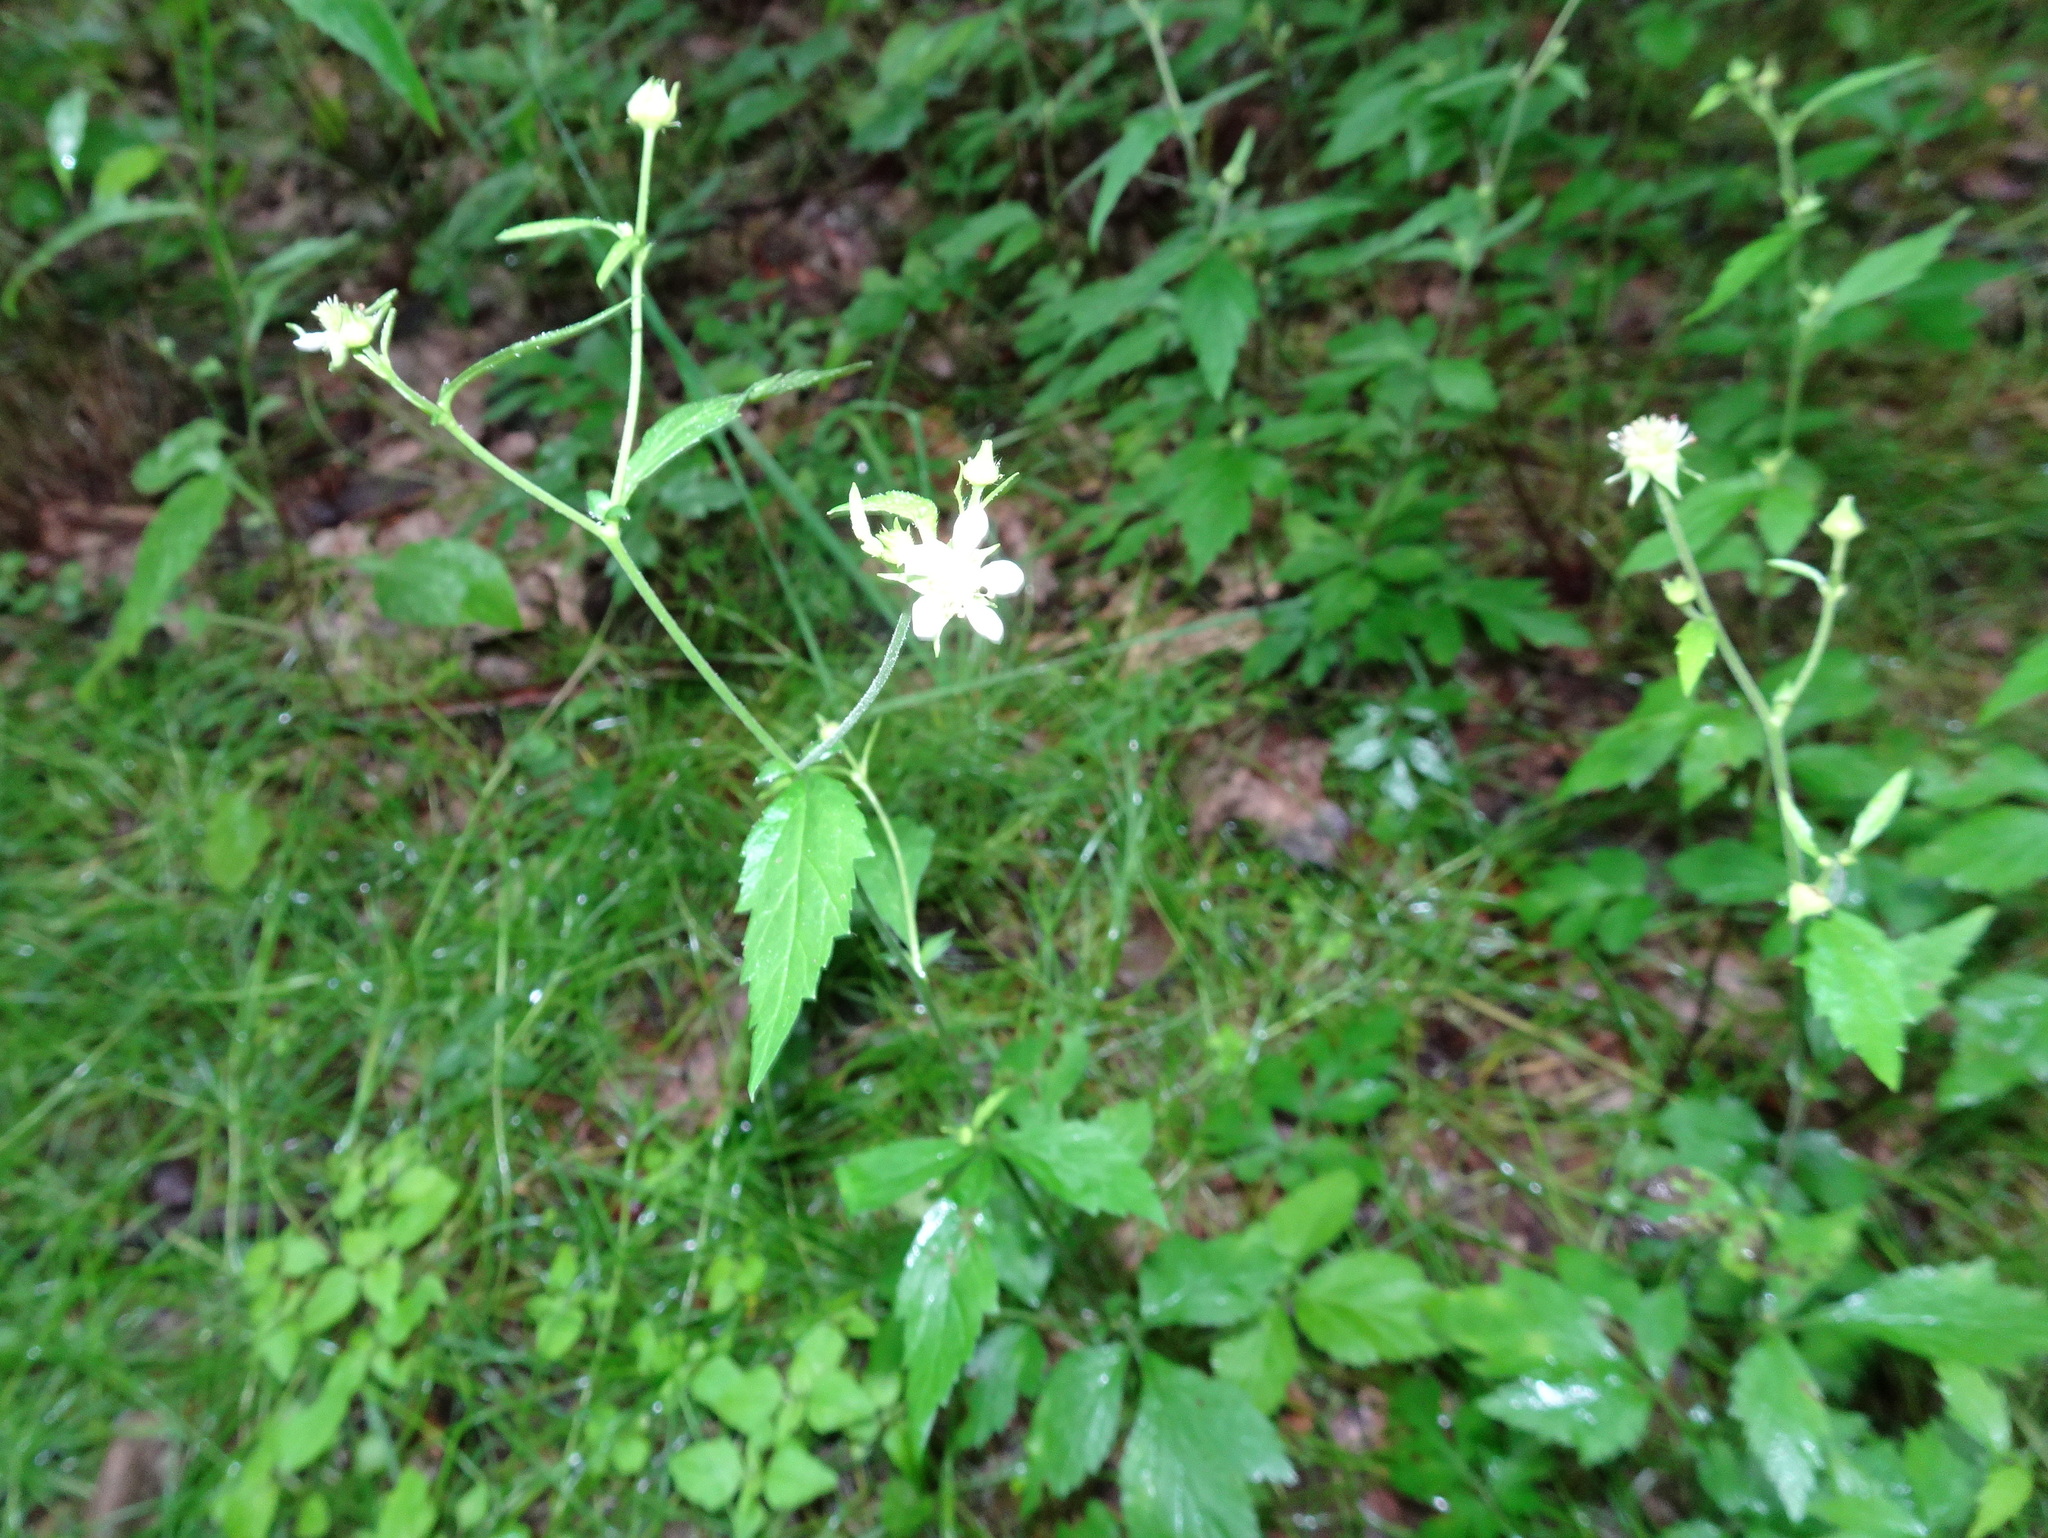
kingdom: Plantae
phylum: Tracheophyta
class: Magnoliopsida
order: Rosales
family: Rosaceae
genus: Geum
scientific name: Geum canadense
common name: White avens
